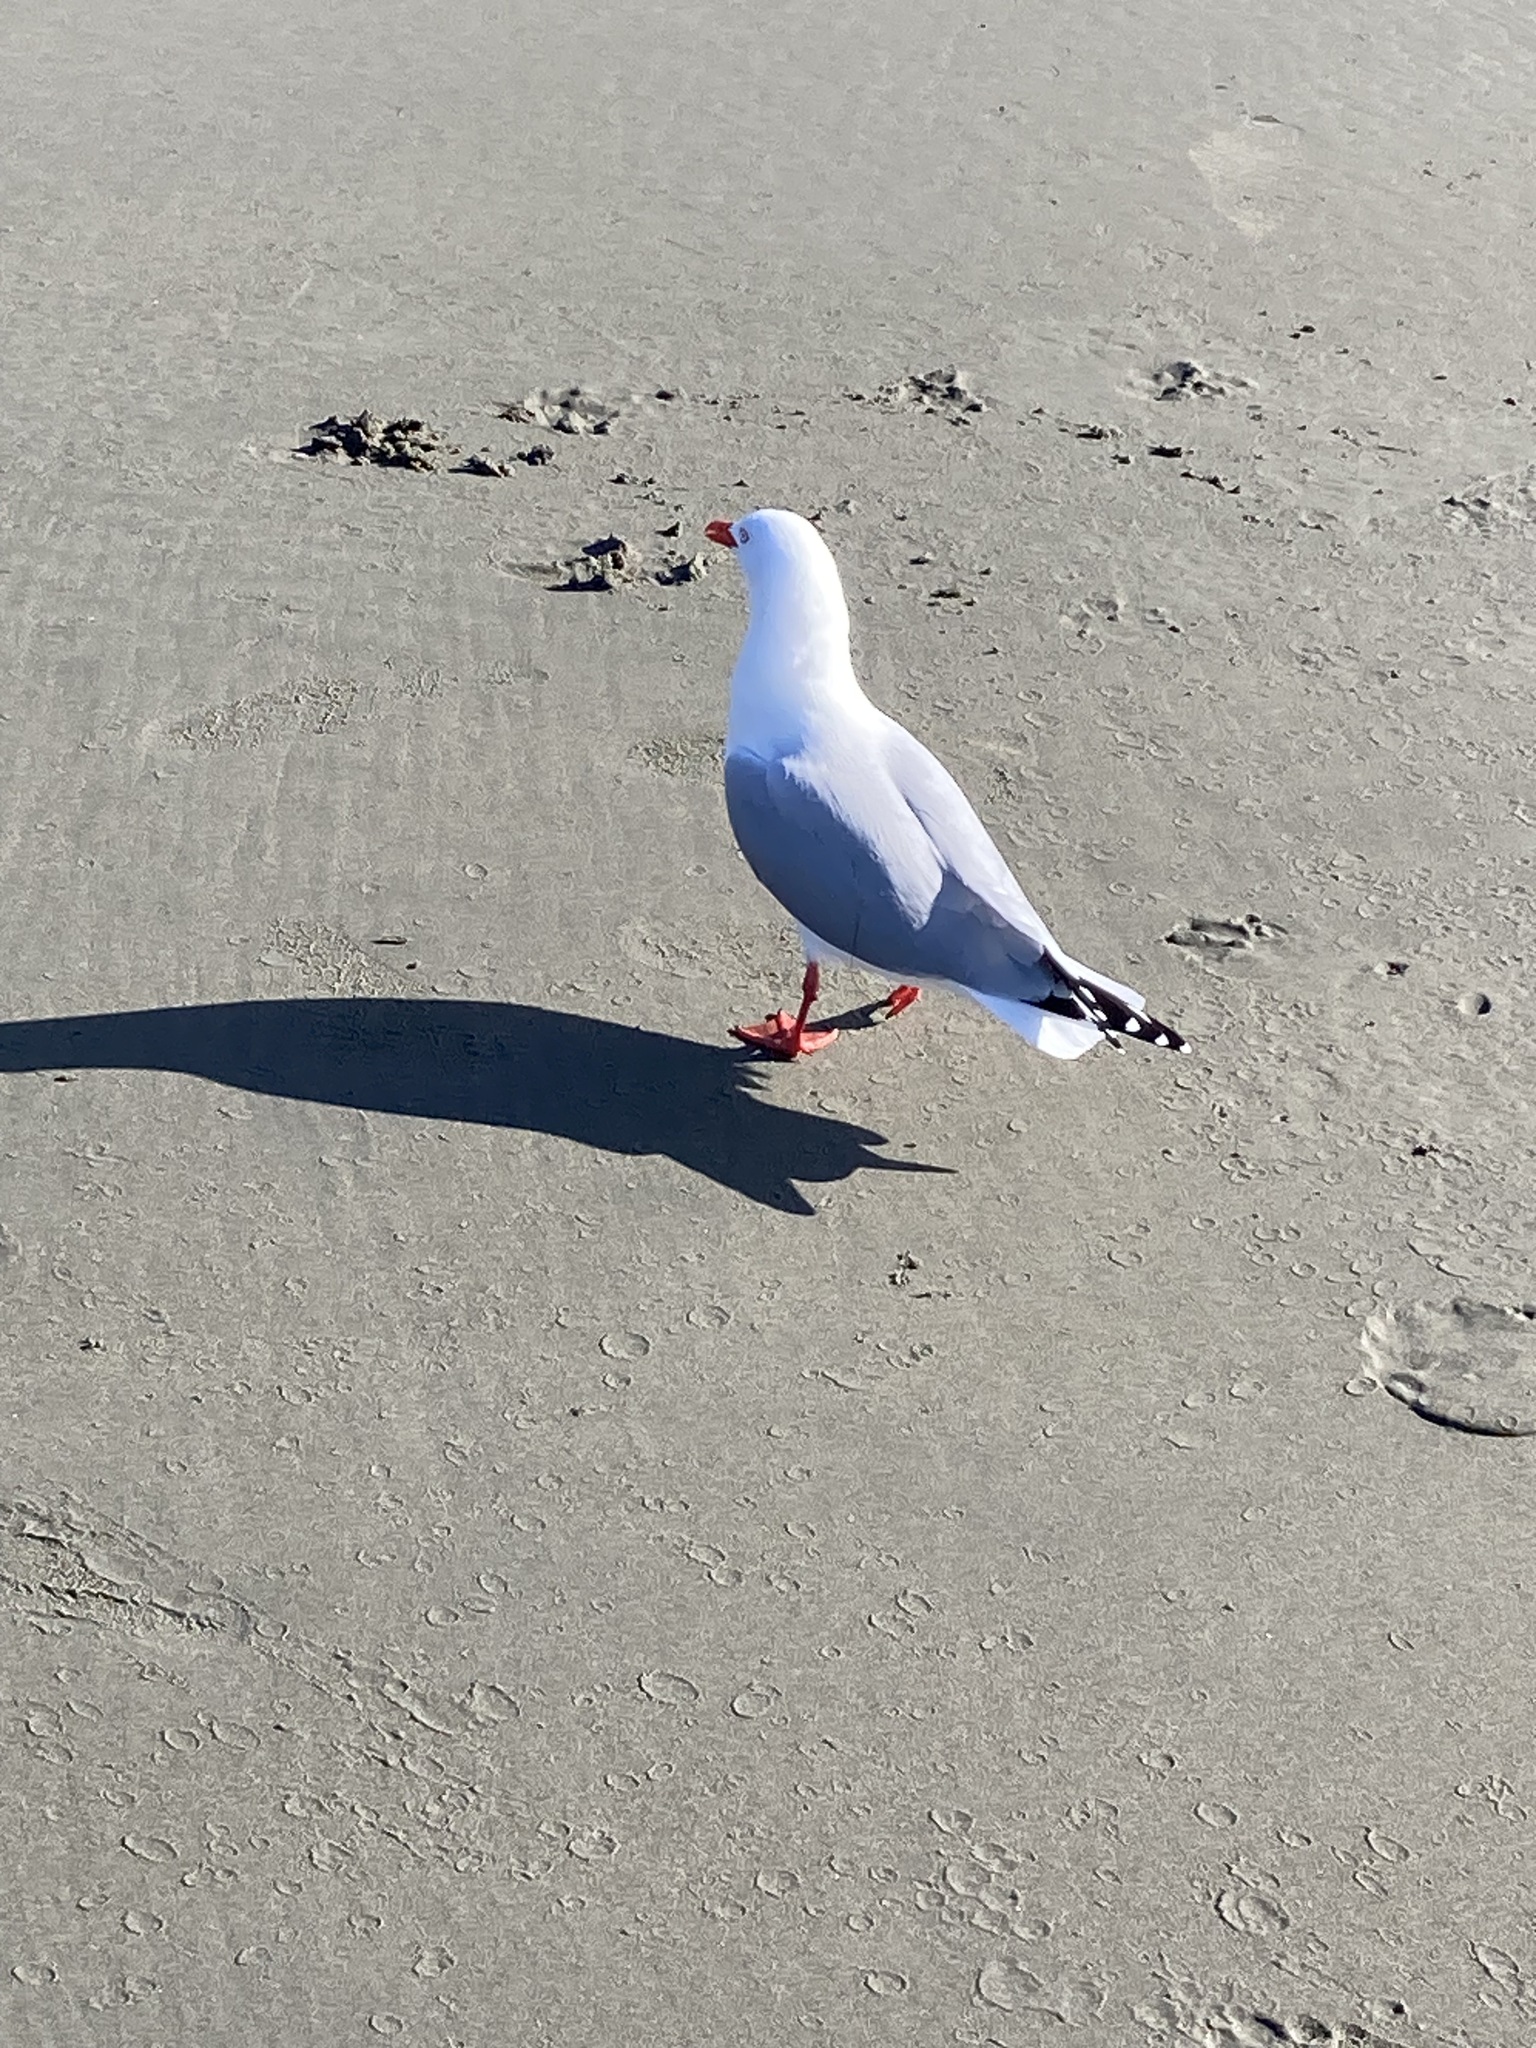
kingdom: Animalia
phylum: Chordata
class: Aves
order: Charadriiformes
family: Laridae
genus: Chroicocephalus
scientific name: Chroicocephalus novaehollandiae
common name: Silver gull
